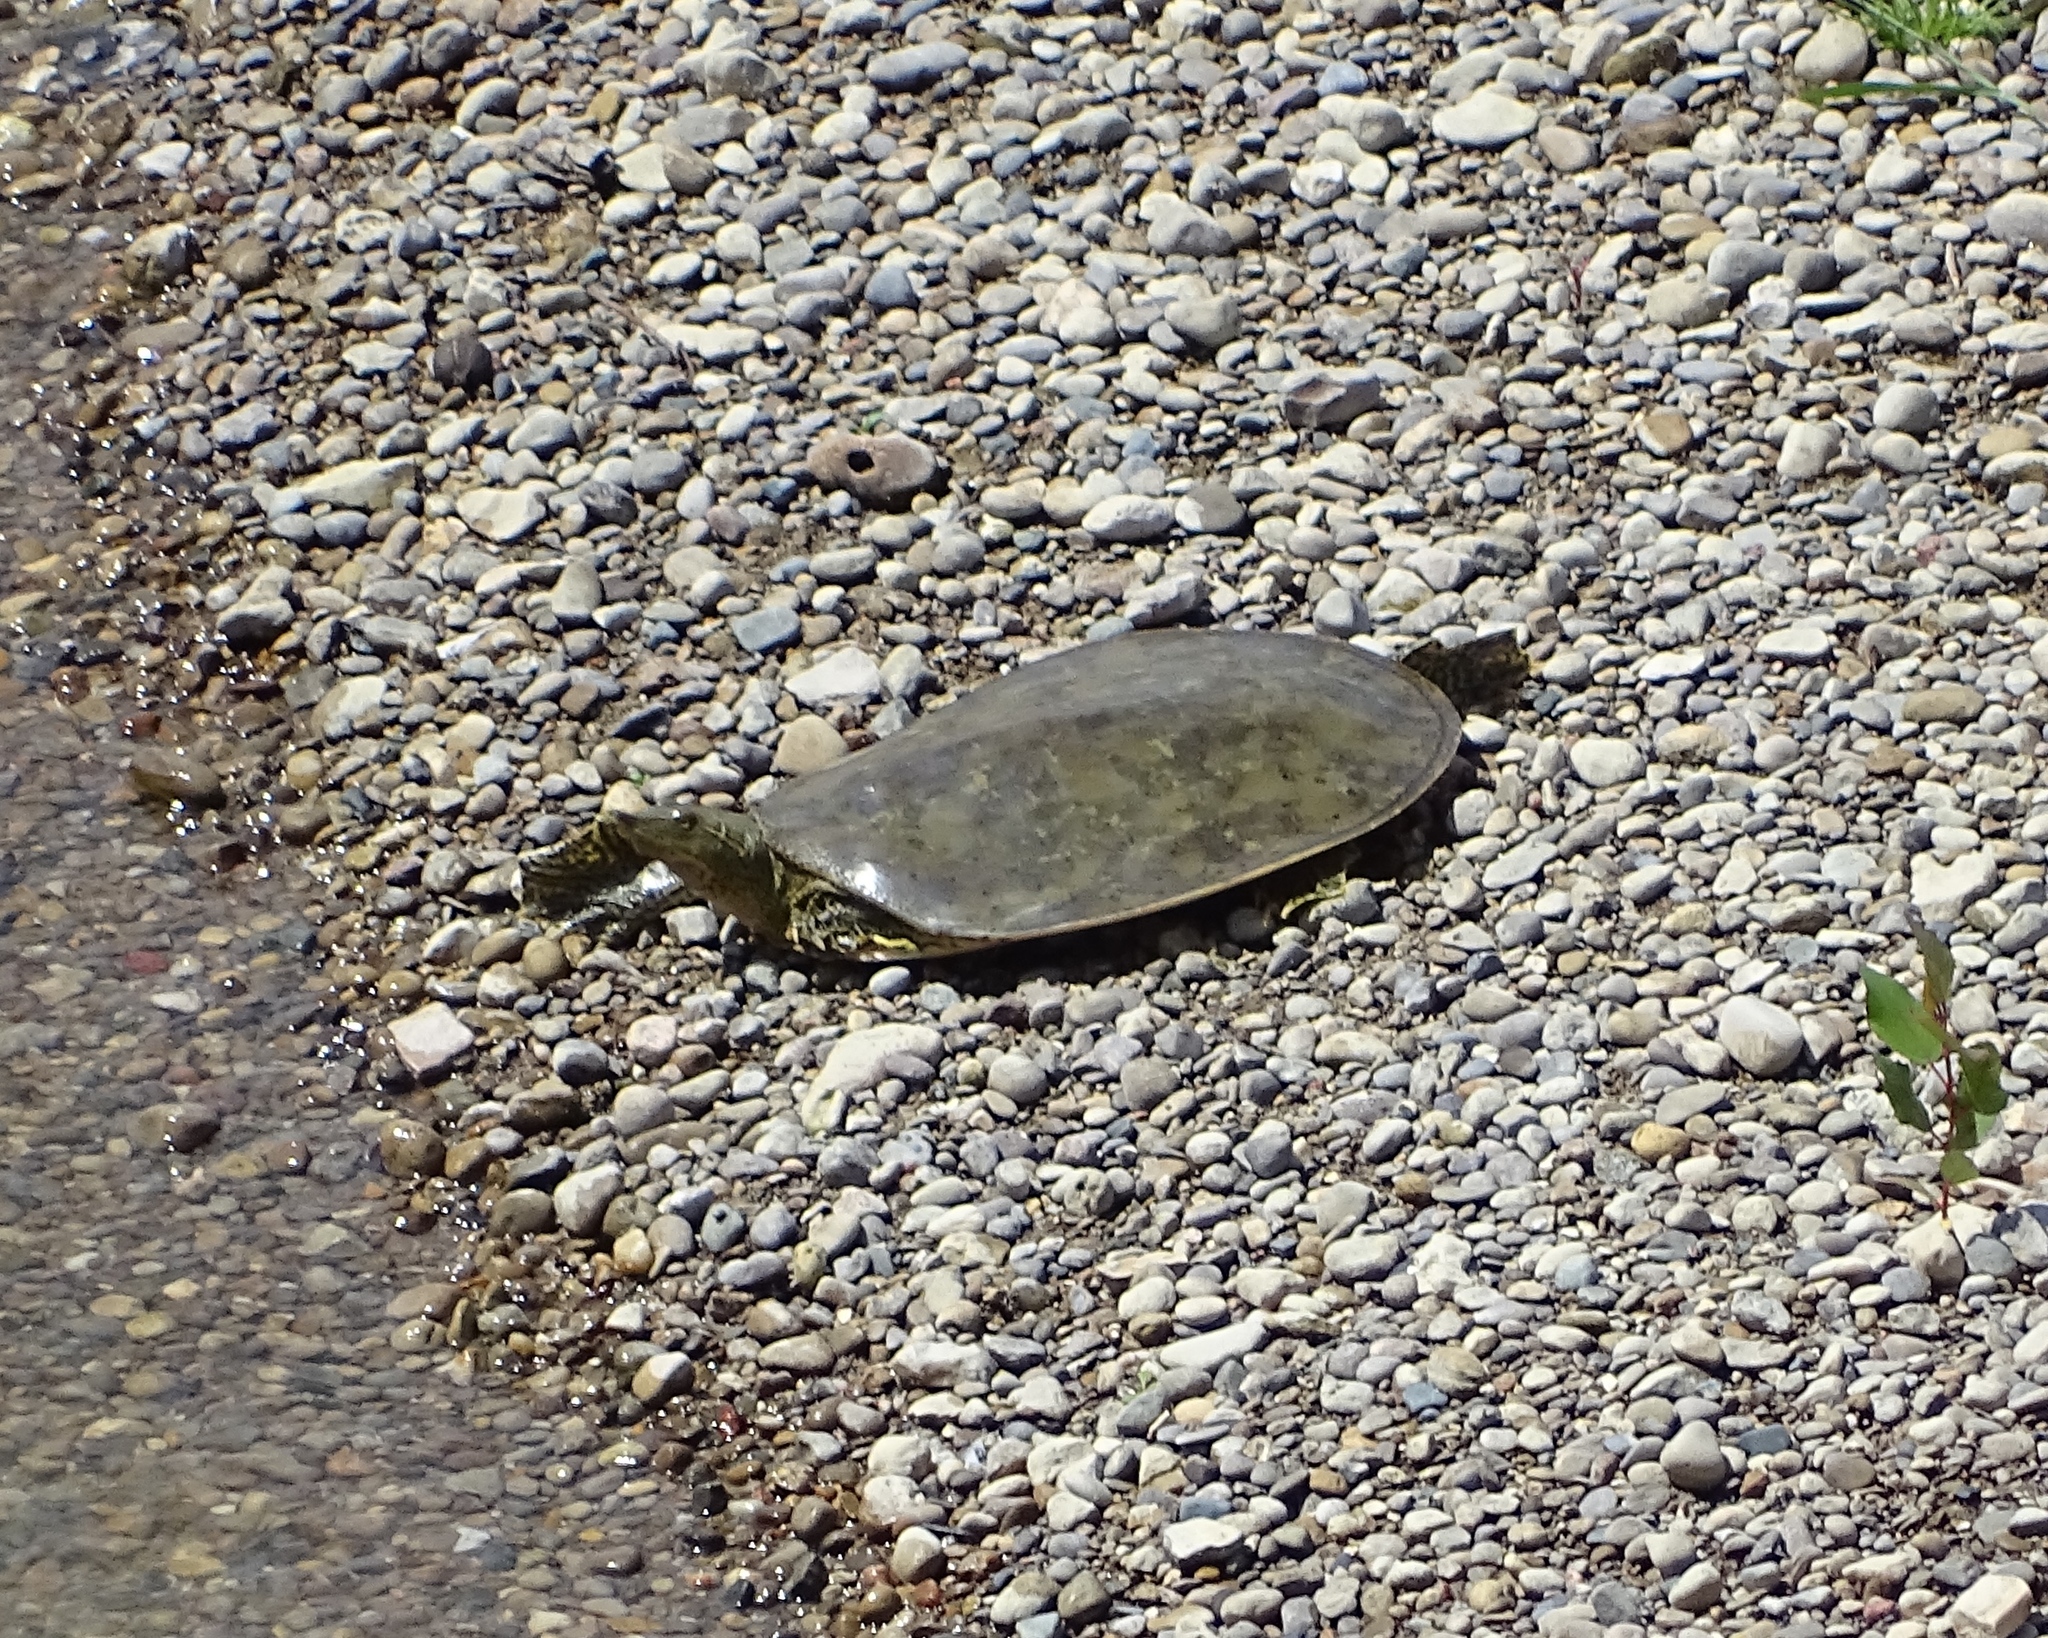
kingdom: Animalia
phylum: Chordata
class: Testudines
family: Trionychidae
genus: Apalone
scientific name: Apalone spinifera
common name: Spiny softshell turtle
